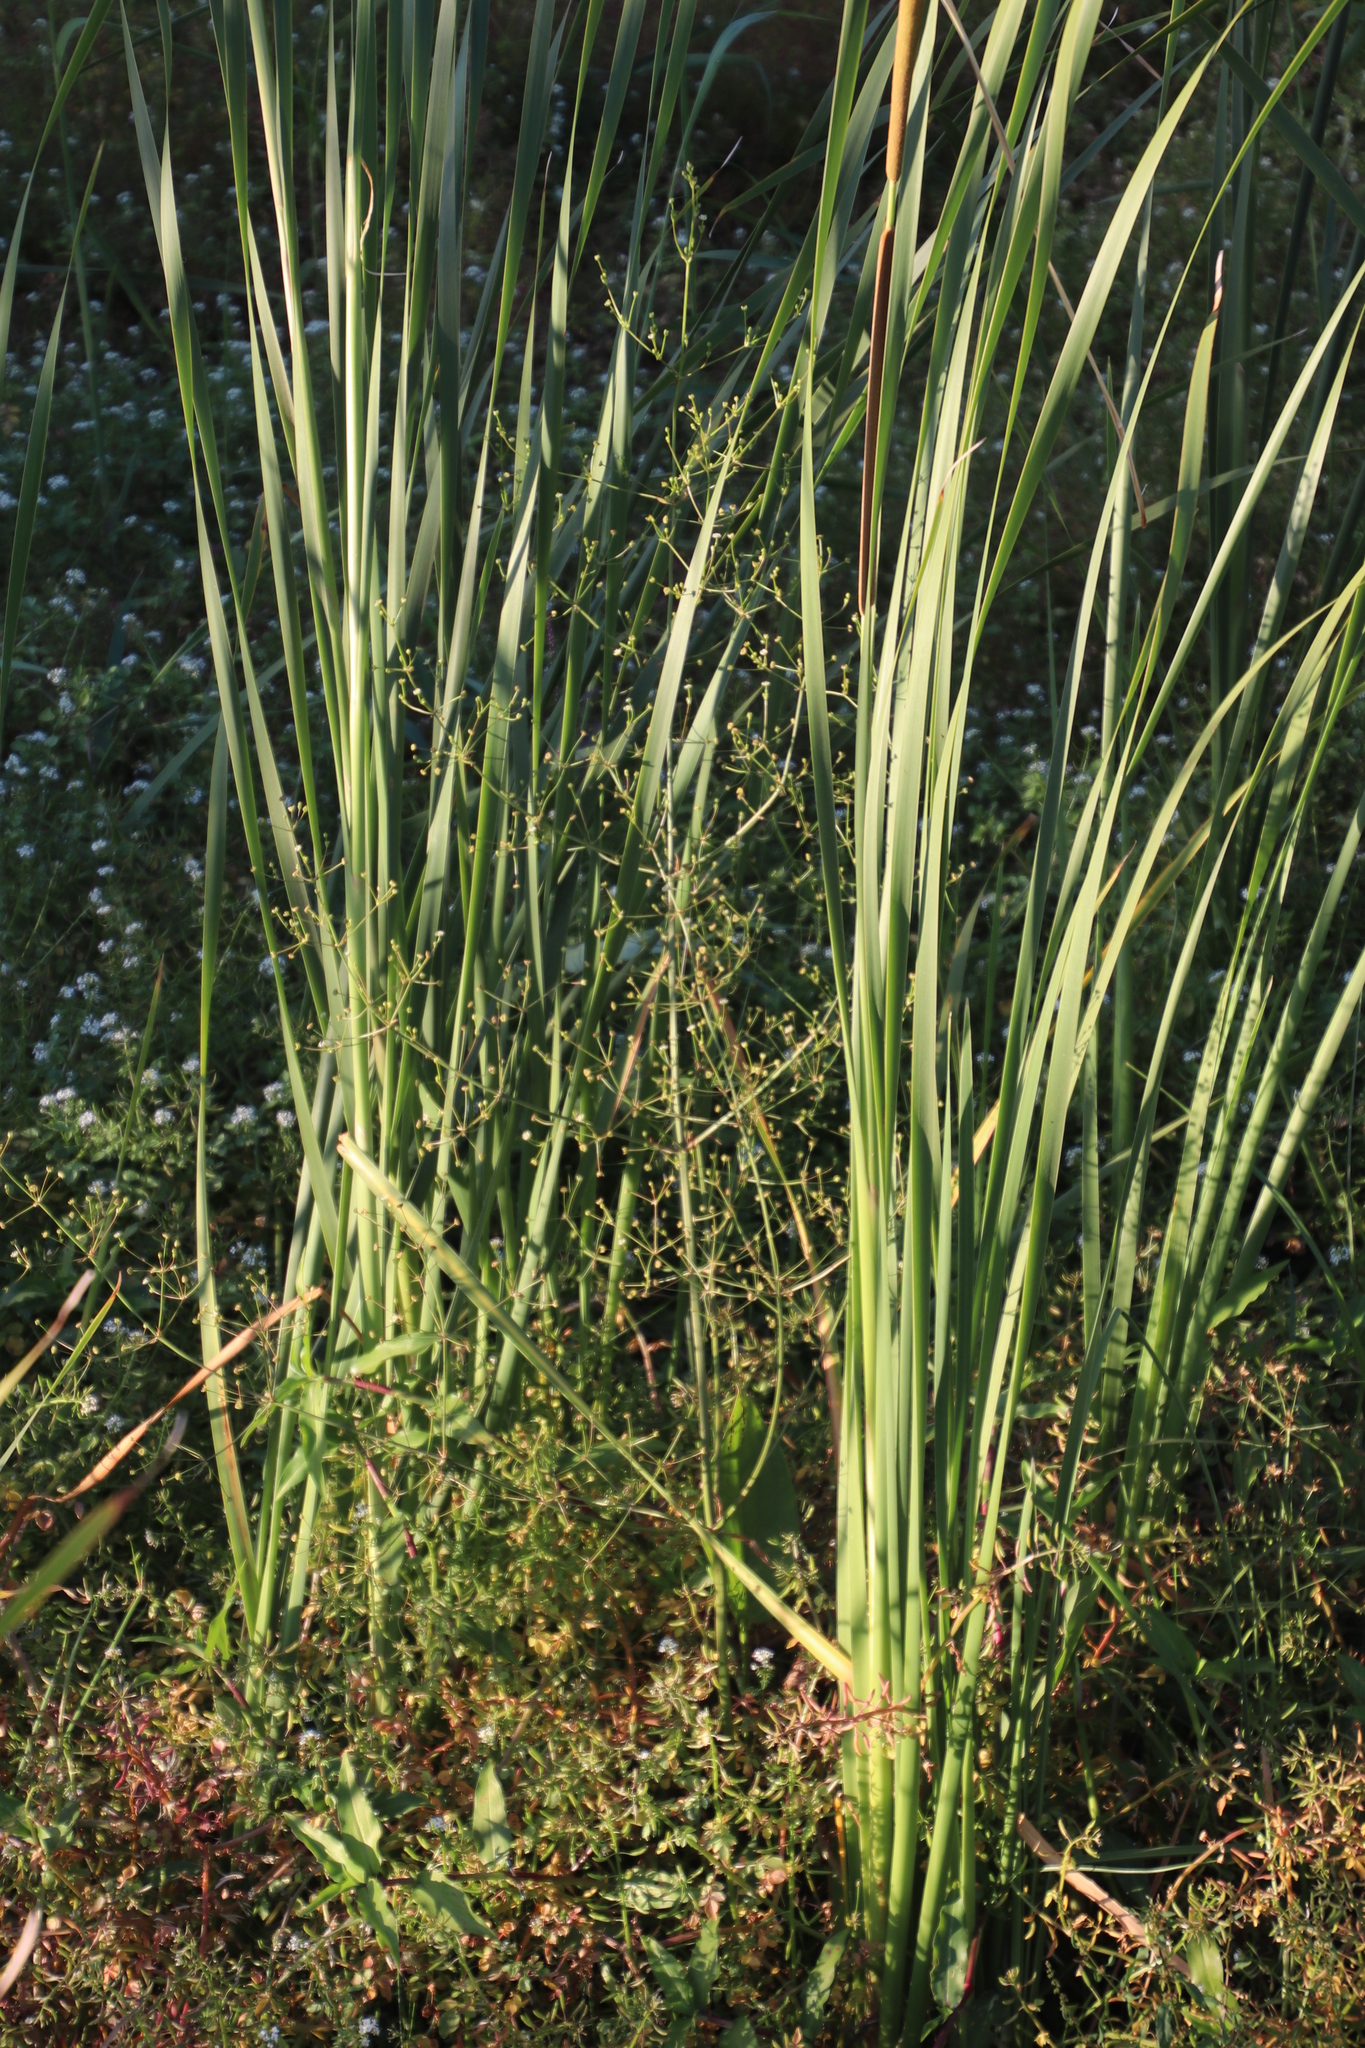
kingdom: Plantae
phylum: Tracheophyta
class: Liliopsida
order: Alismatales
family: Alismataceae
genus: Alisma
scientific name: Alisma plantago-aquatica
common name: Water-plantain
